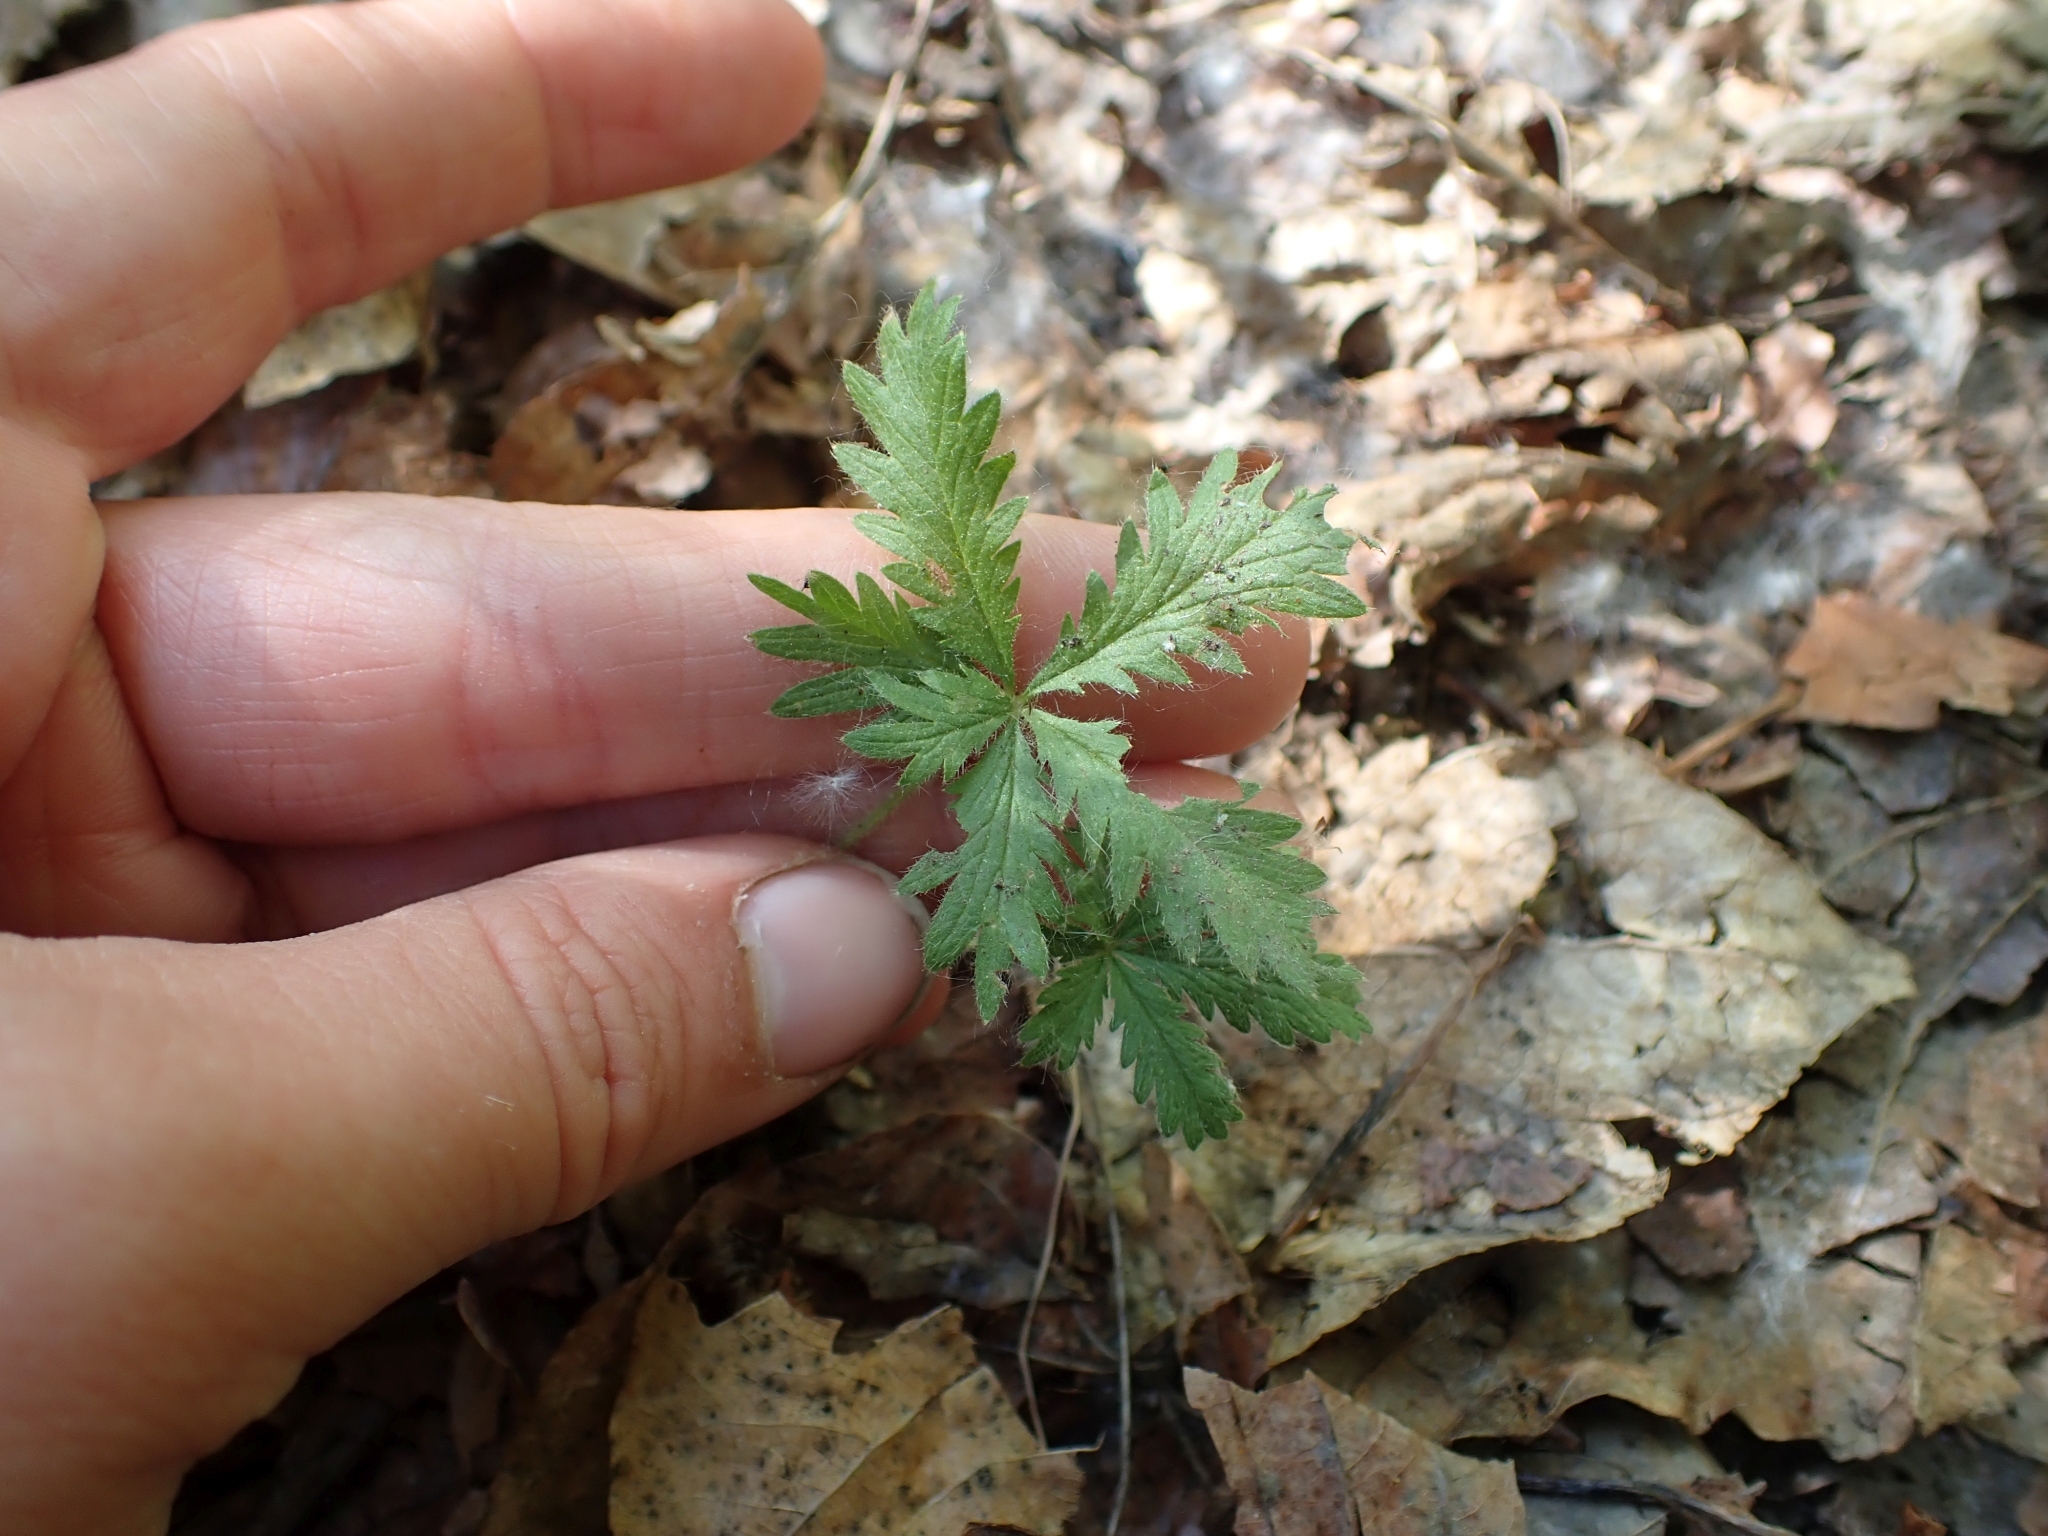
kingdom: Plantae
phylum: Tracheophyta
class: Magnoliopsida
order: Rosales
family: Rosaceae
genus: Potentilla
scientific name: Potentilla recta
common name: Sulphur cinquefoil
